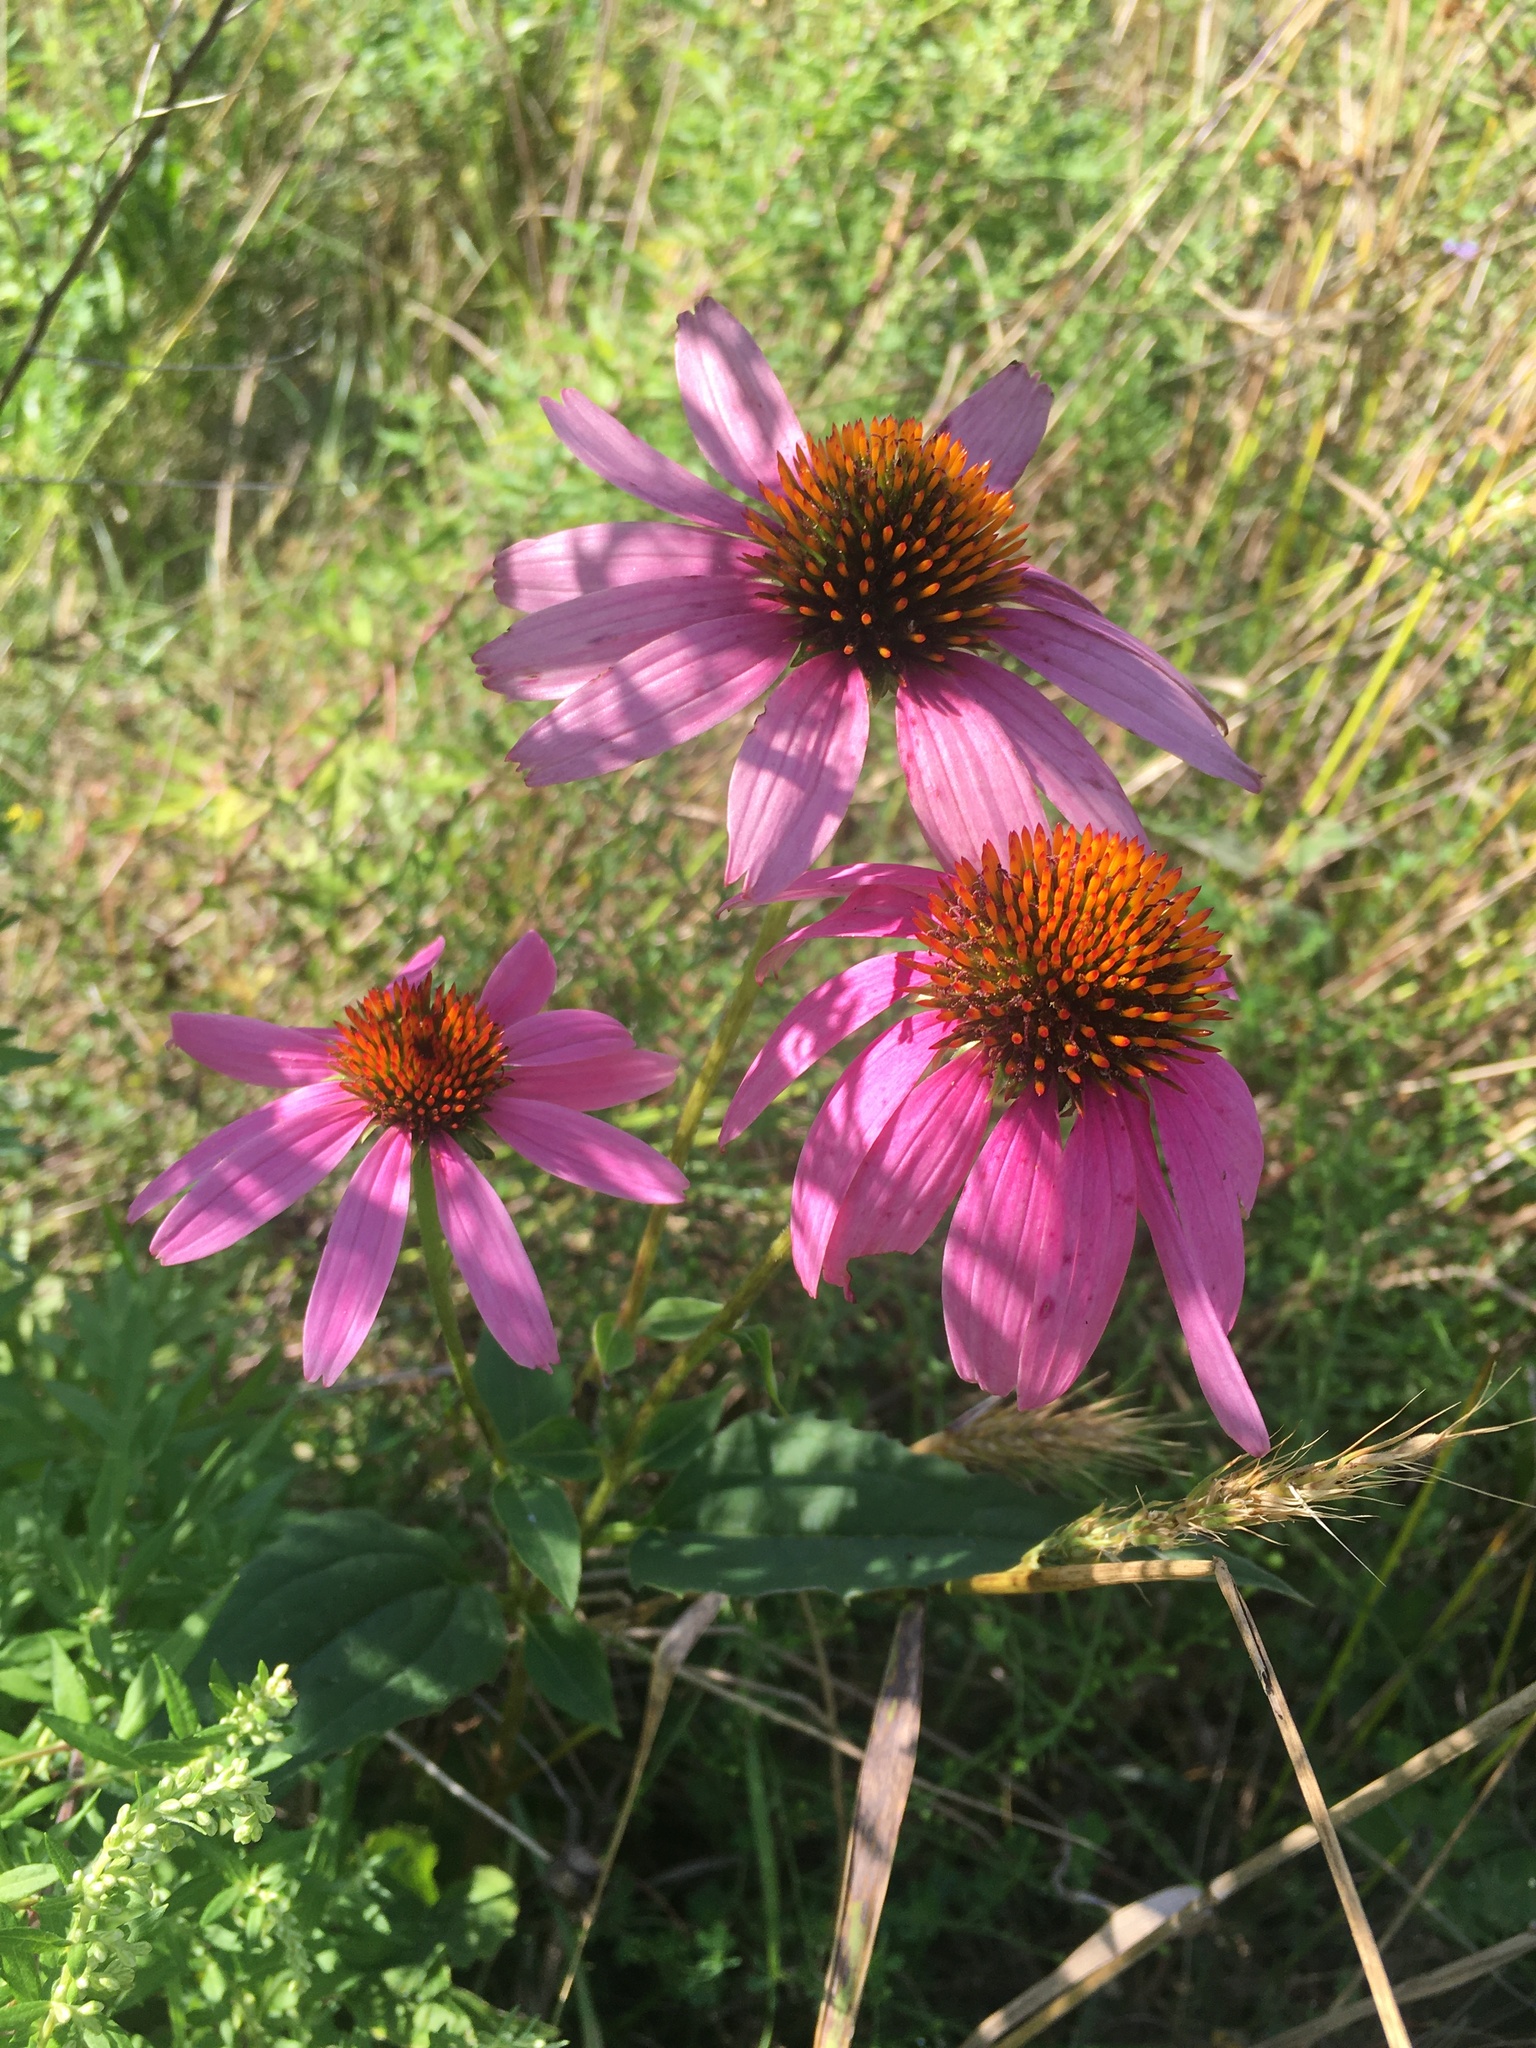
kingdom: Plantae
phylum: Tracheophyta
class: Magnoliopsida
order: Asterales
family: Asteraceae
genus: Echinacea
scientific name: Echinacea purpurea
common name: Broad-leaved purple coneflower
